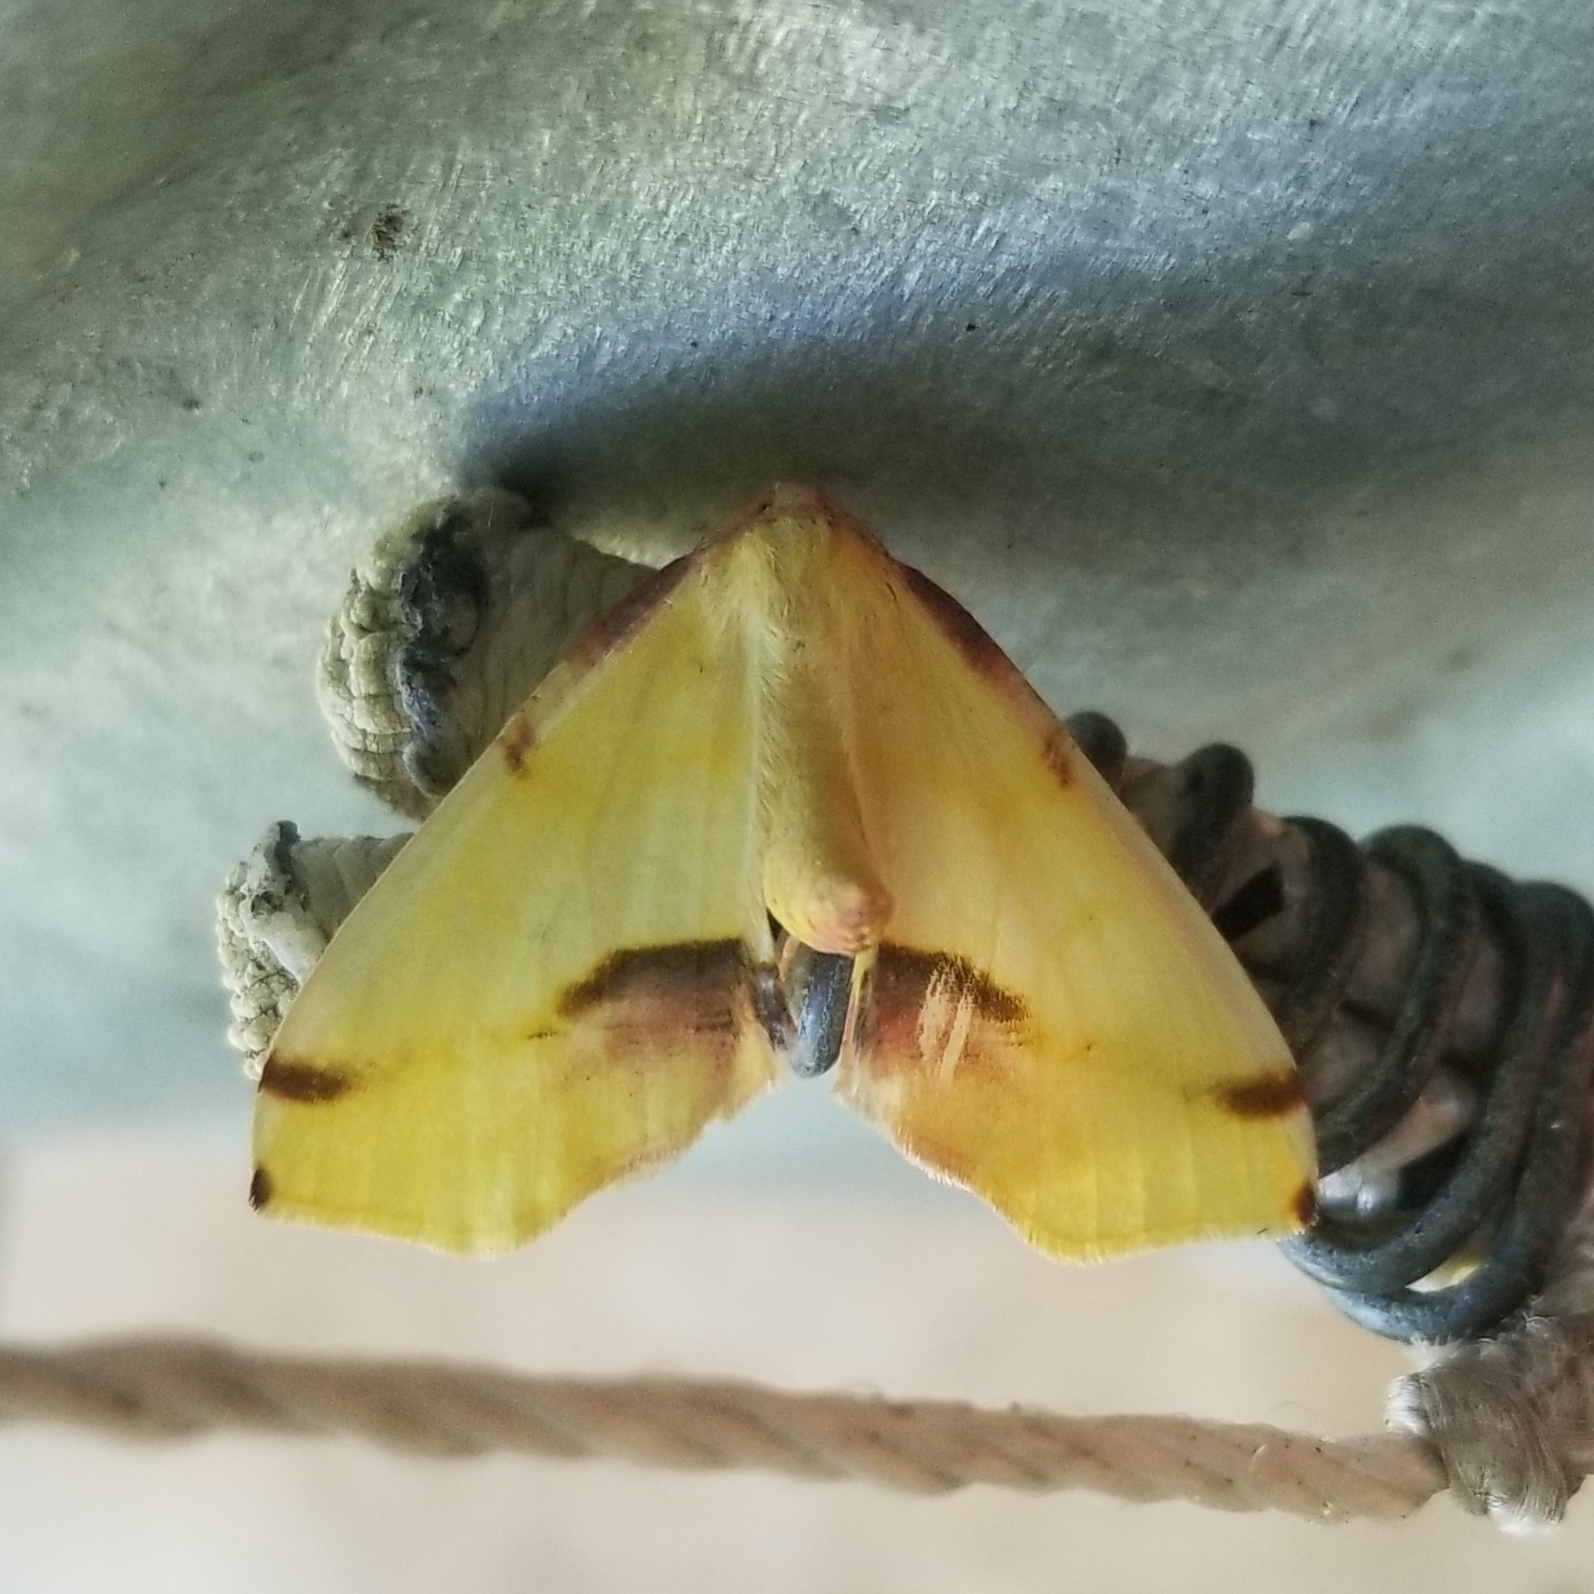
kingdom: Animalia
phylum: Arthropoda
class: Insecta
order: Lepidoptera
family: Geometridae
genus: Plagodis
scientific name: Plagodis serinaria
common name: Lemon plagodis
